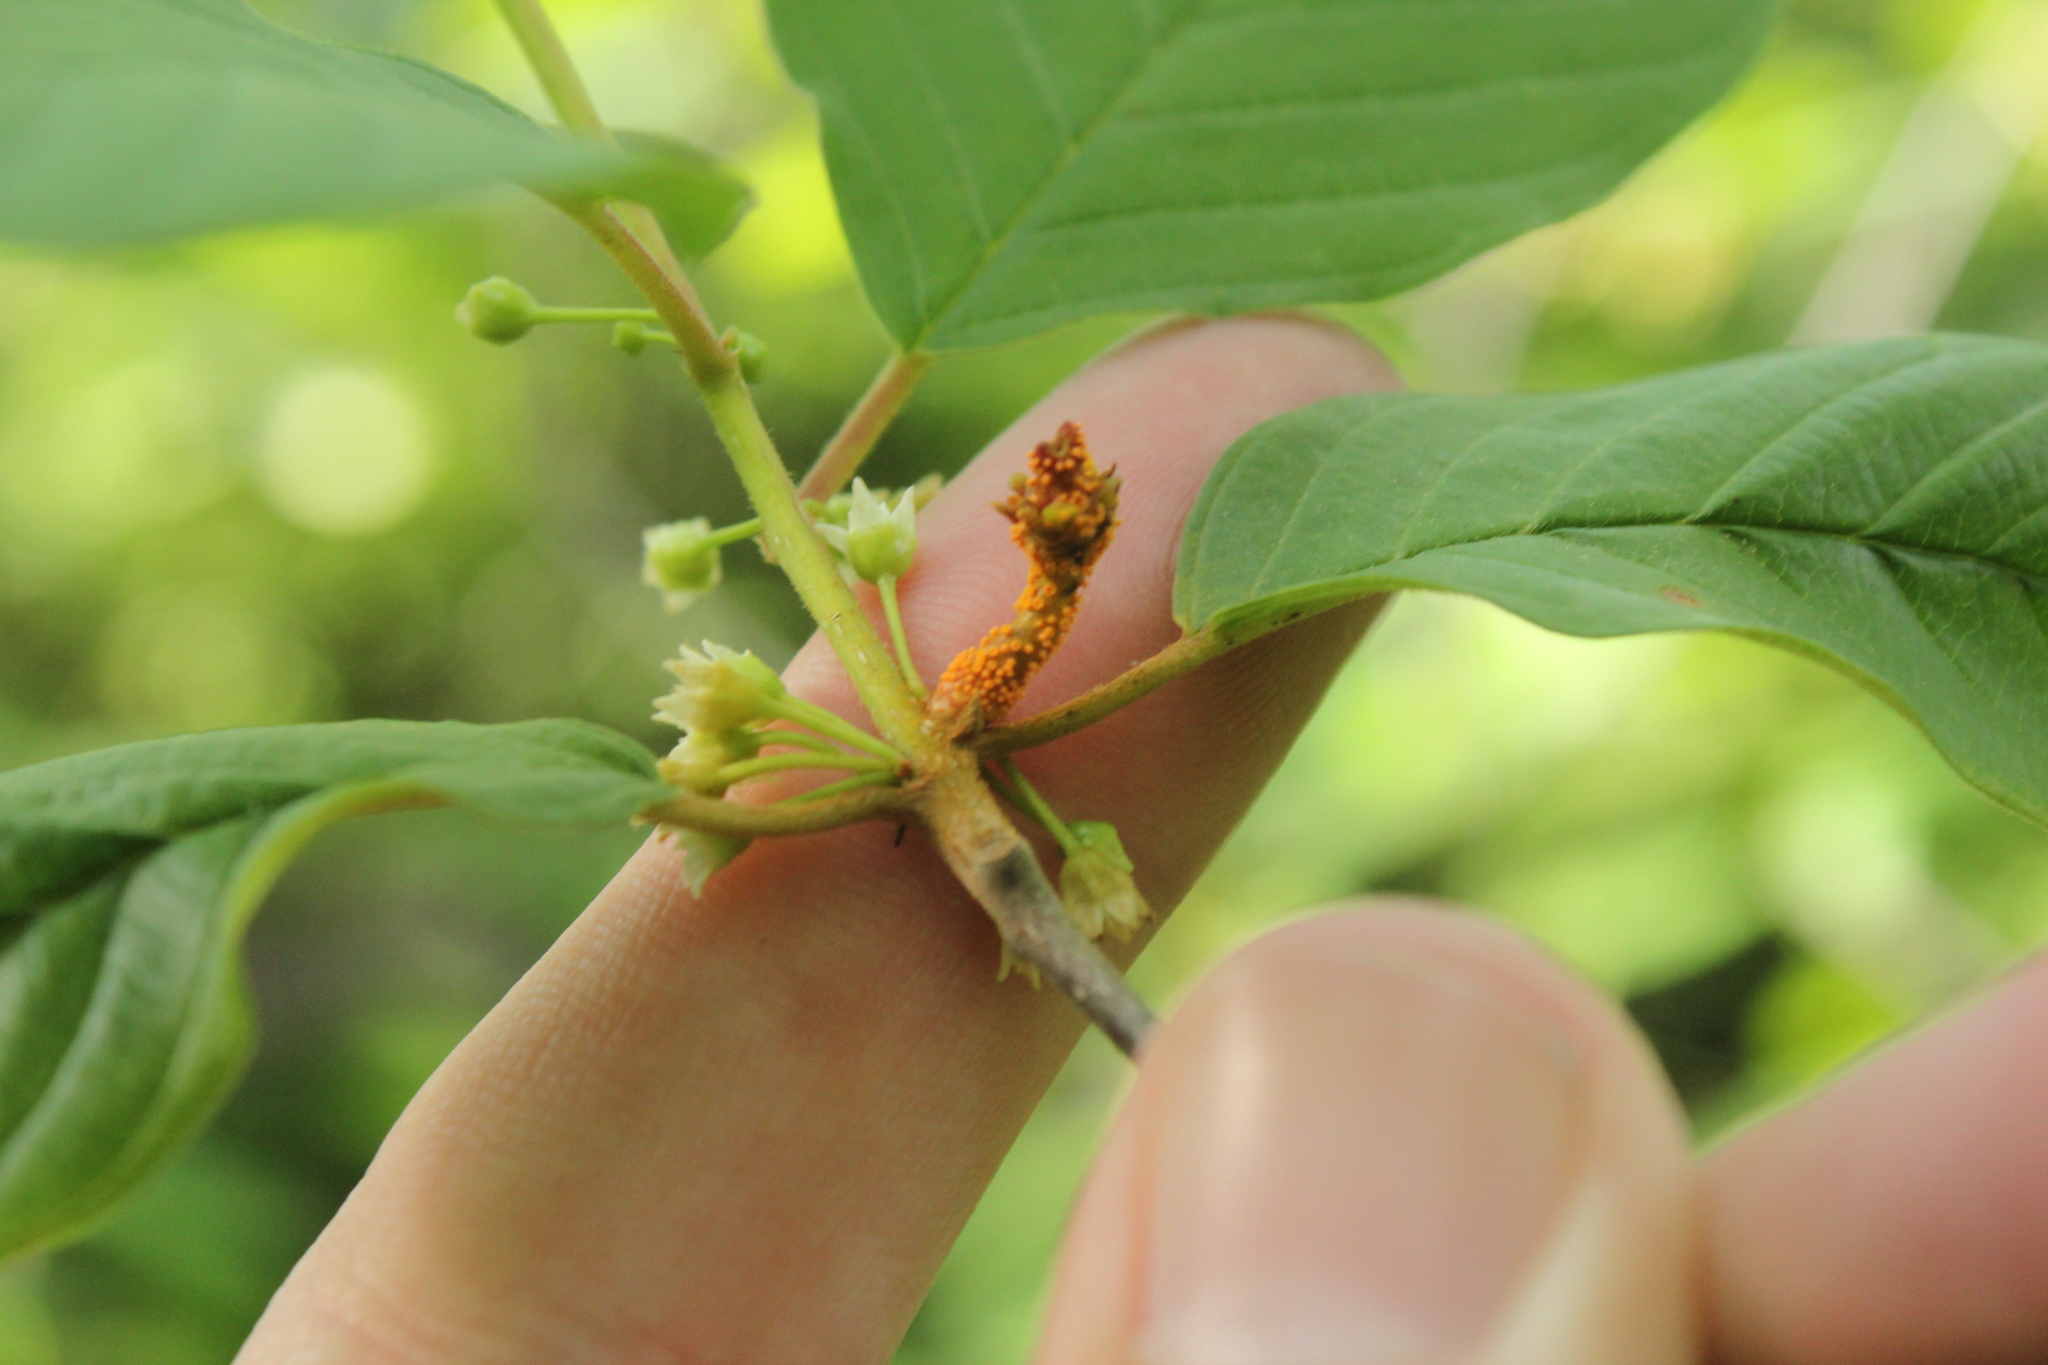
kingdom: Fungi
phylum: Basidiomycota
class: Pucciniomycetes
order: Pucciniales
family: Pucciniaceae
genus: Puccinia
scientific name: Puccinia coronata
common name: Crown rust
